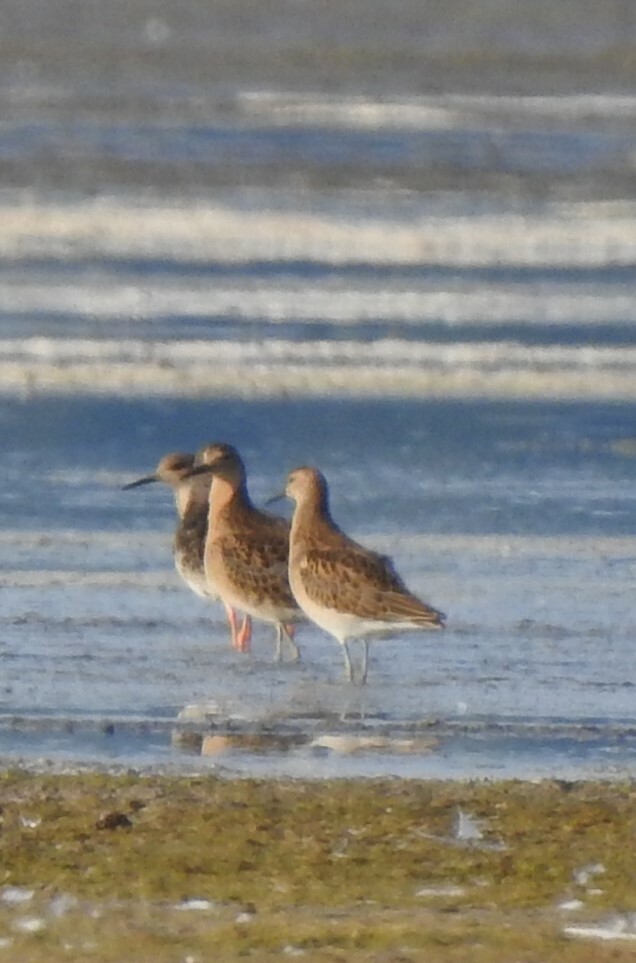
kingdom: Animalia
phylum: Chordata
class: Aves
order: Charadriiformes
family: Scolopacidae
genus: Calidris
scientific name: Calidris pugnax
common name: Ruff
